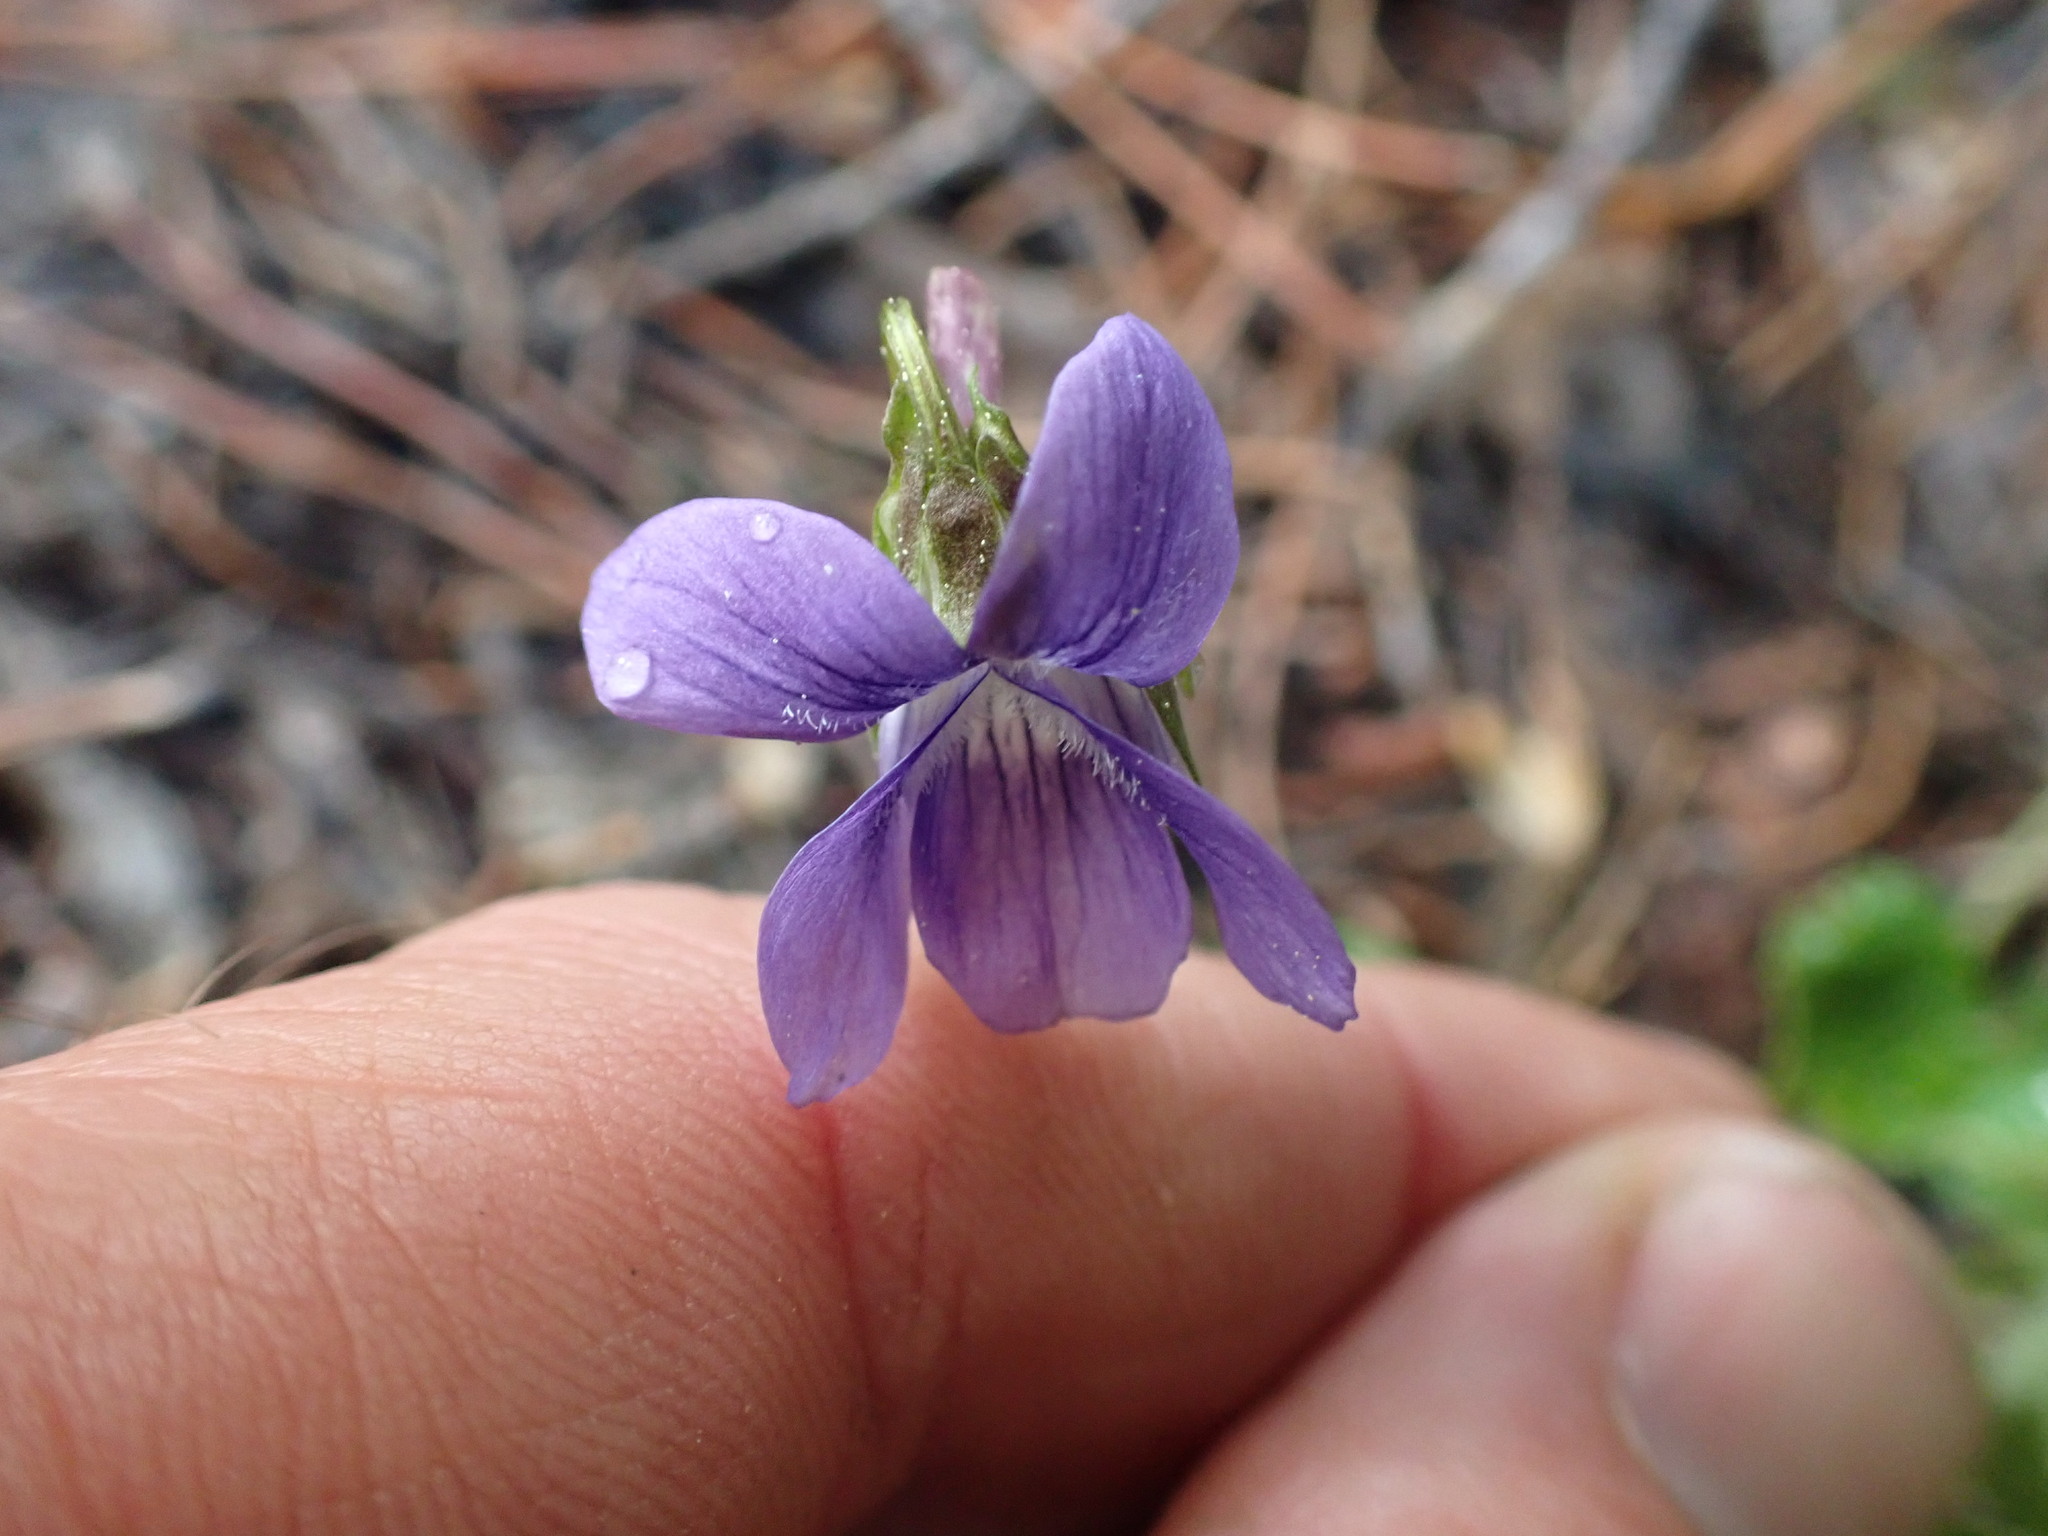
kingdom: Plantae
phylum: Tracheophyta
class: Magnoliopsida
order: Malpighiales
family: Violaceae
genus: Viola
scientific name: Viola adunca
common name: Sand violet
